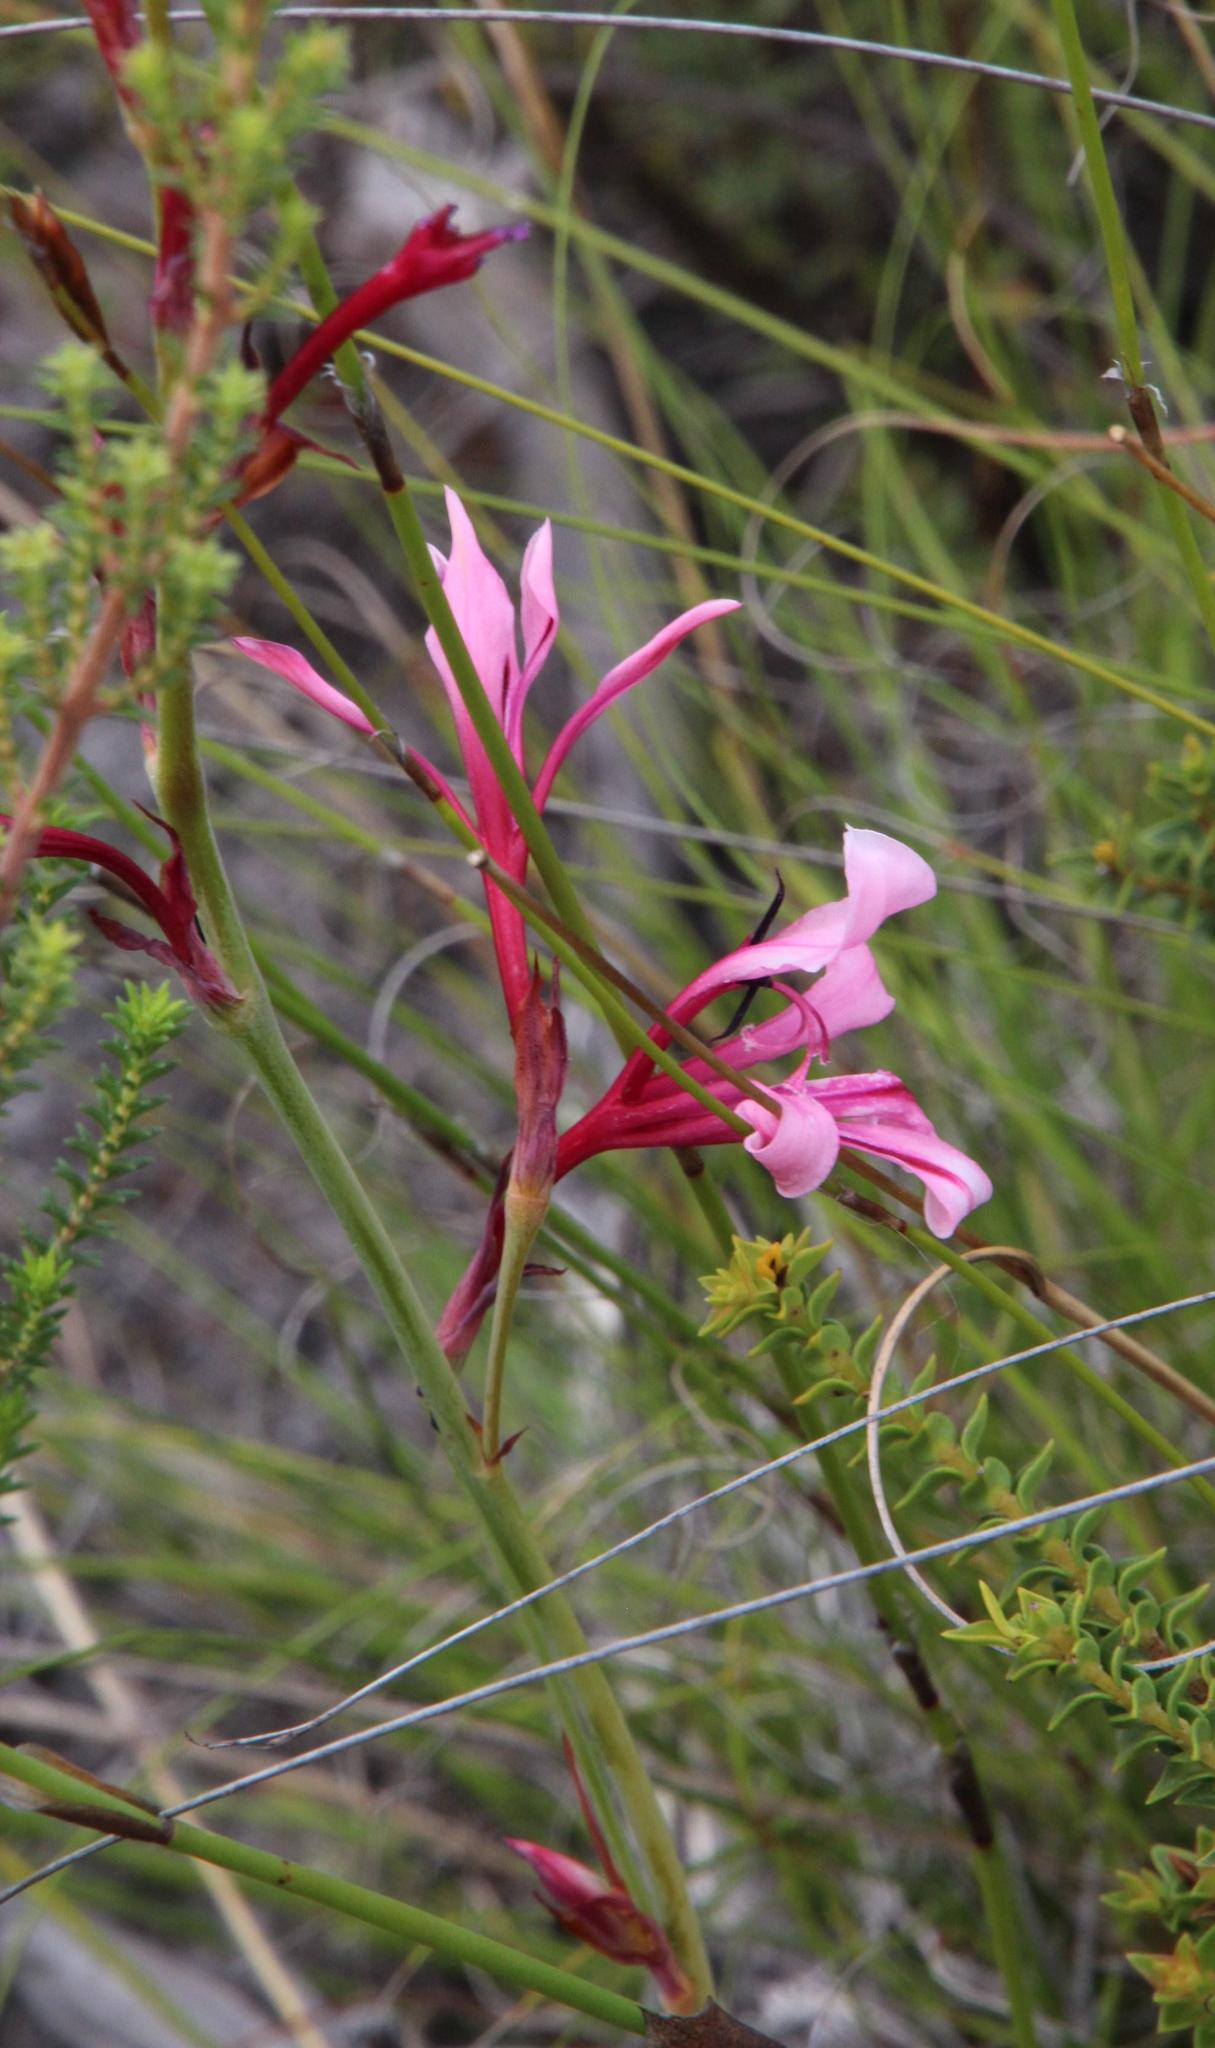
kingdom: Plantae
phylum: Tracheophyta
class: Liliopsida
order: Asparagales
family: Iridaceae
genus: Tritoniopsis
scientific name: Tritoniopsis revoluta
